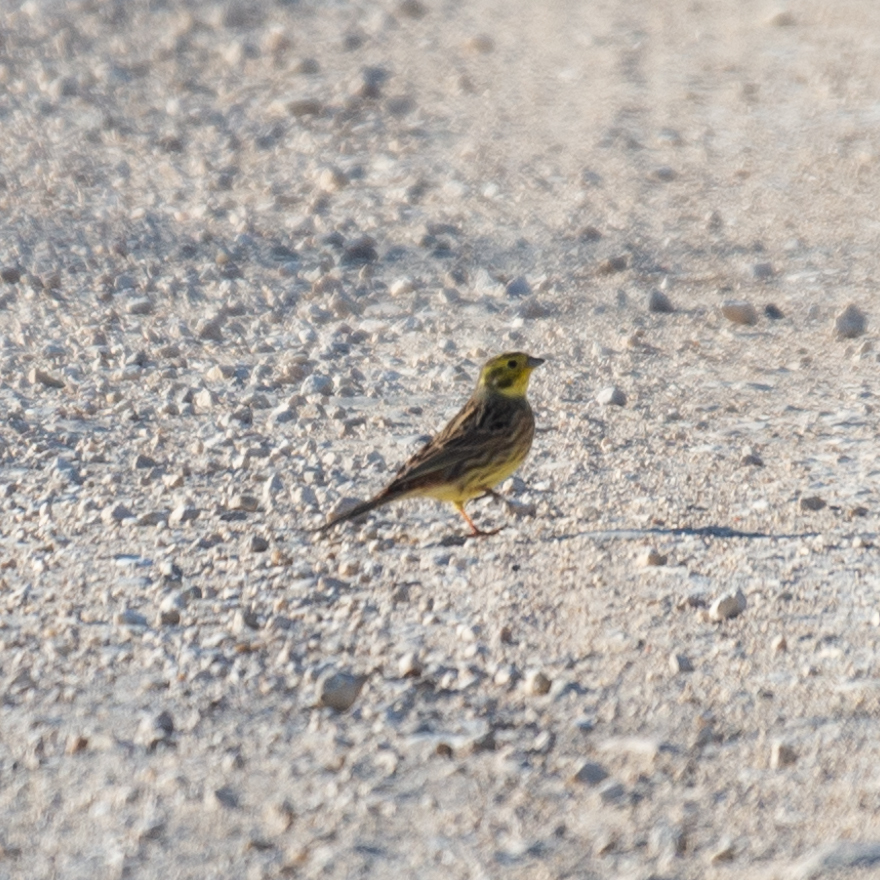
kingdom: Animalia
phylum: Chordata
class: Aves
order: Passeriformes
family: Emberizidae
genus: Emberiza
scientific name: Emberiza citrinella
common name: Yellowhammer
